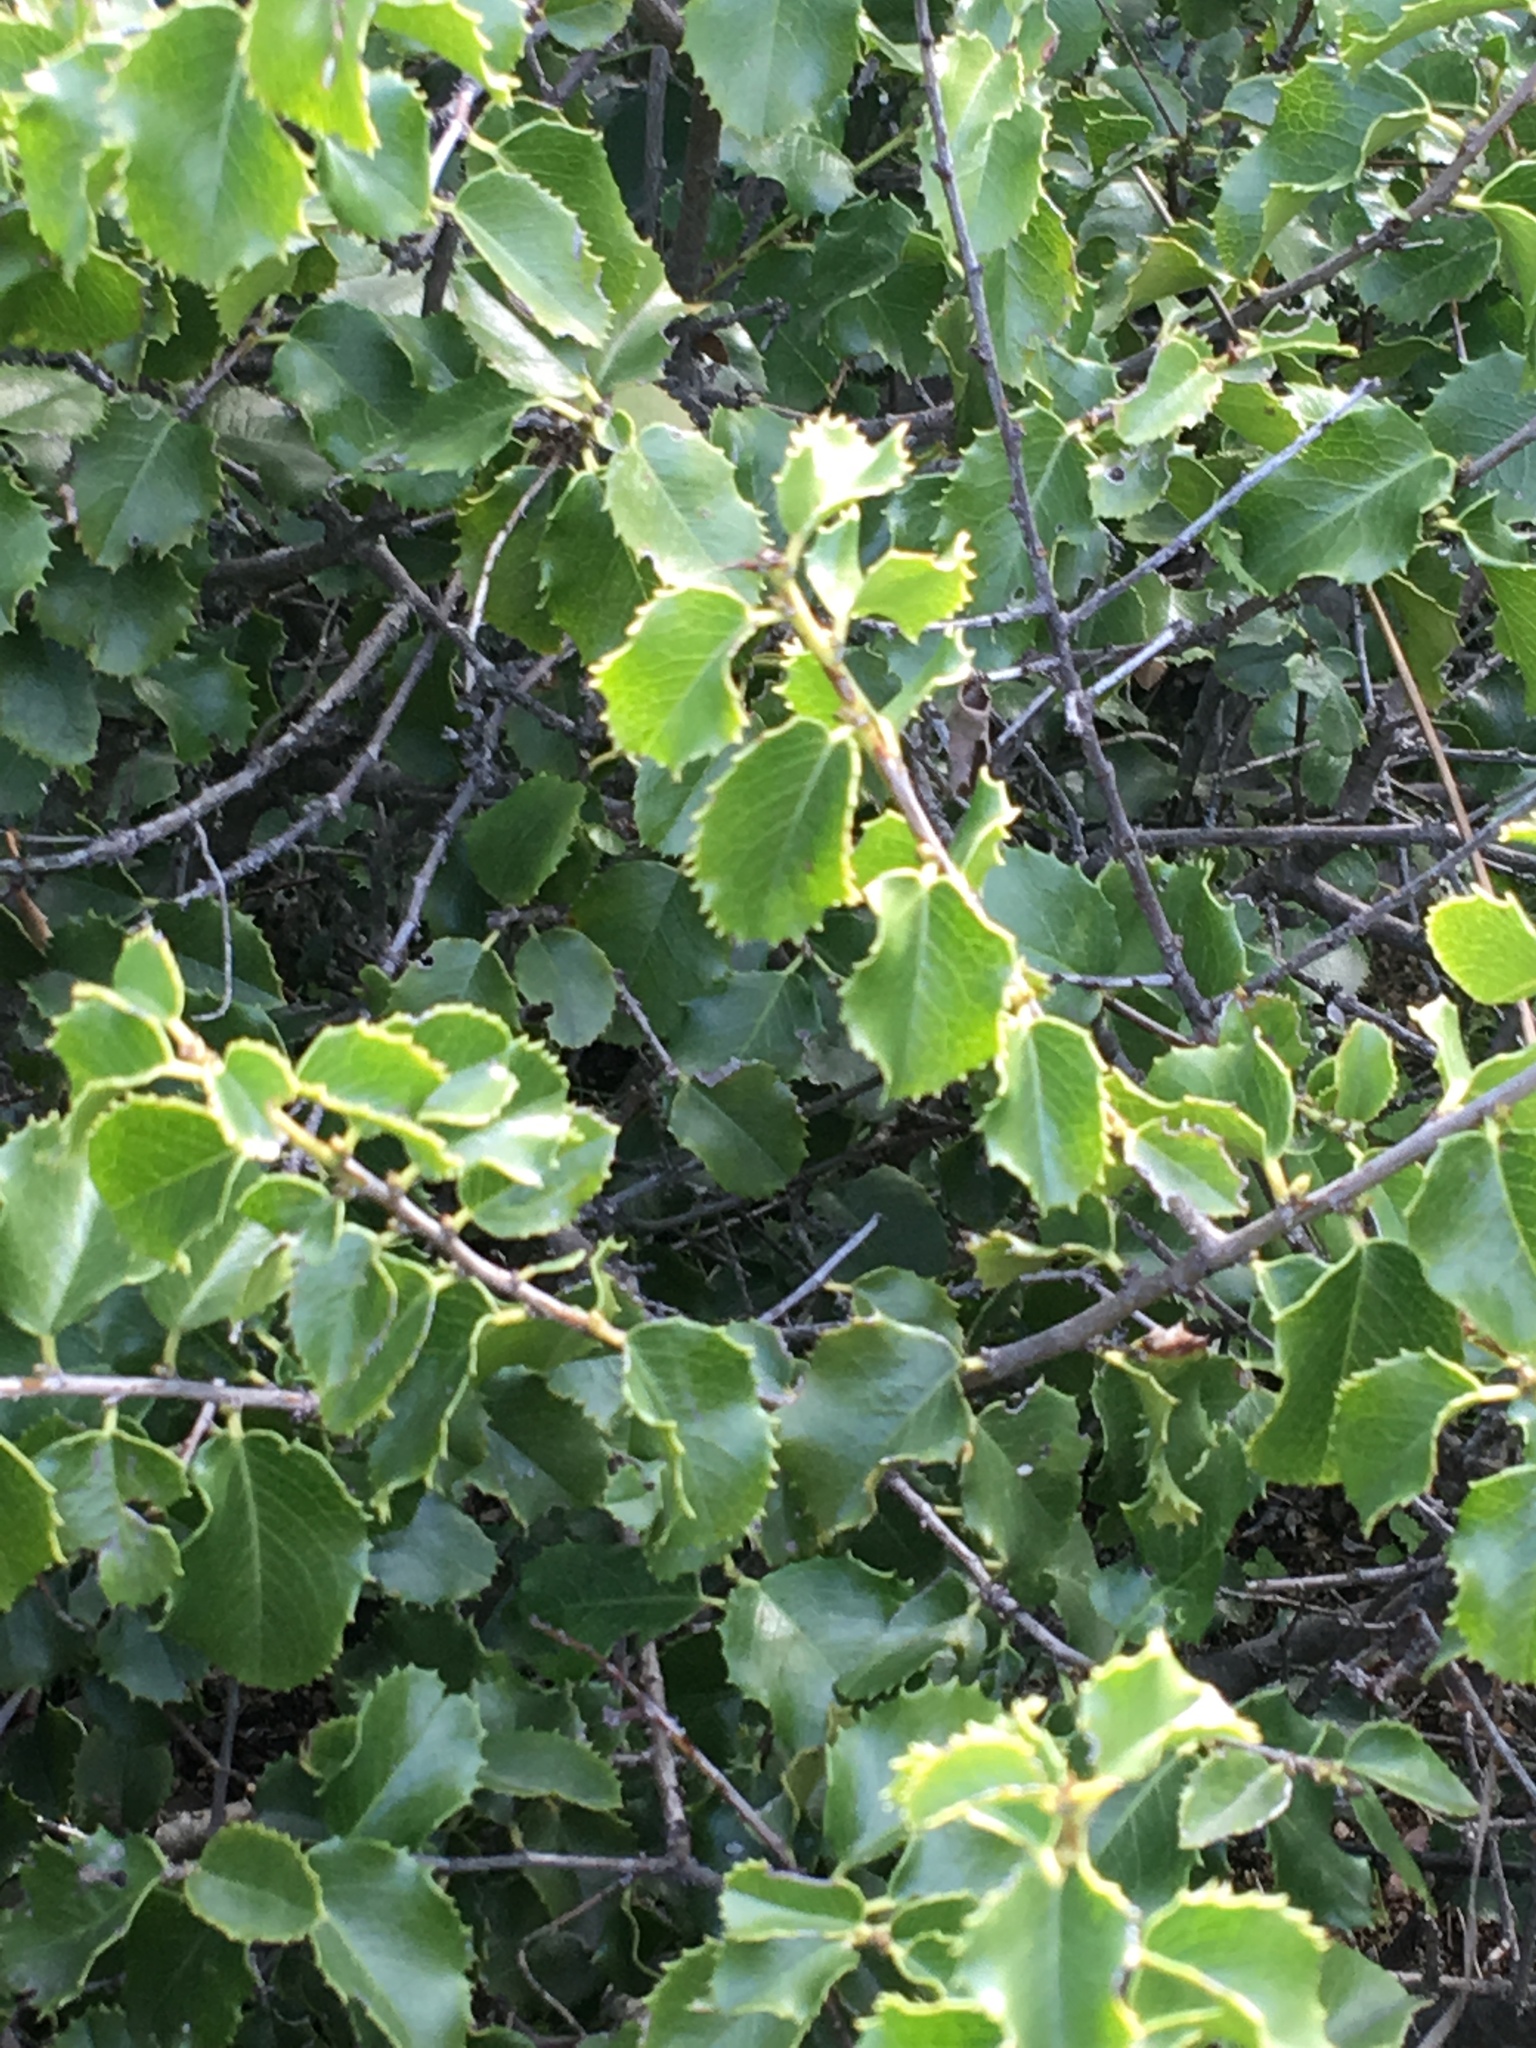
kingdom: Plantae
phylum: Tracheophyta
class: Magnoliopsida
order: Rosales
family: Rosaceae
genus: Prunus
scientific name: Prunus ilicifolia
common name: Hollyleaf cherry
